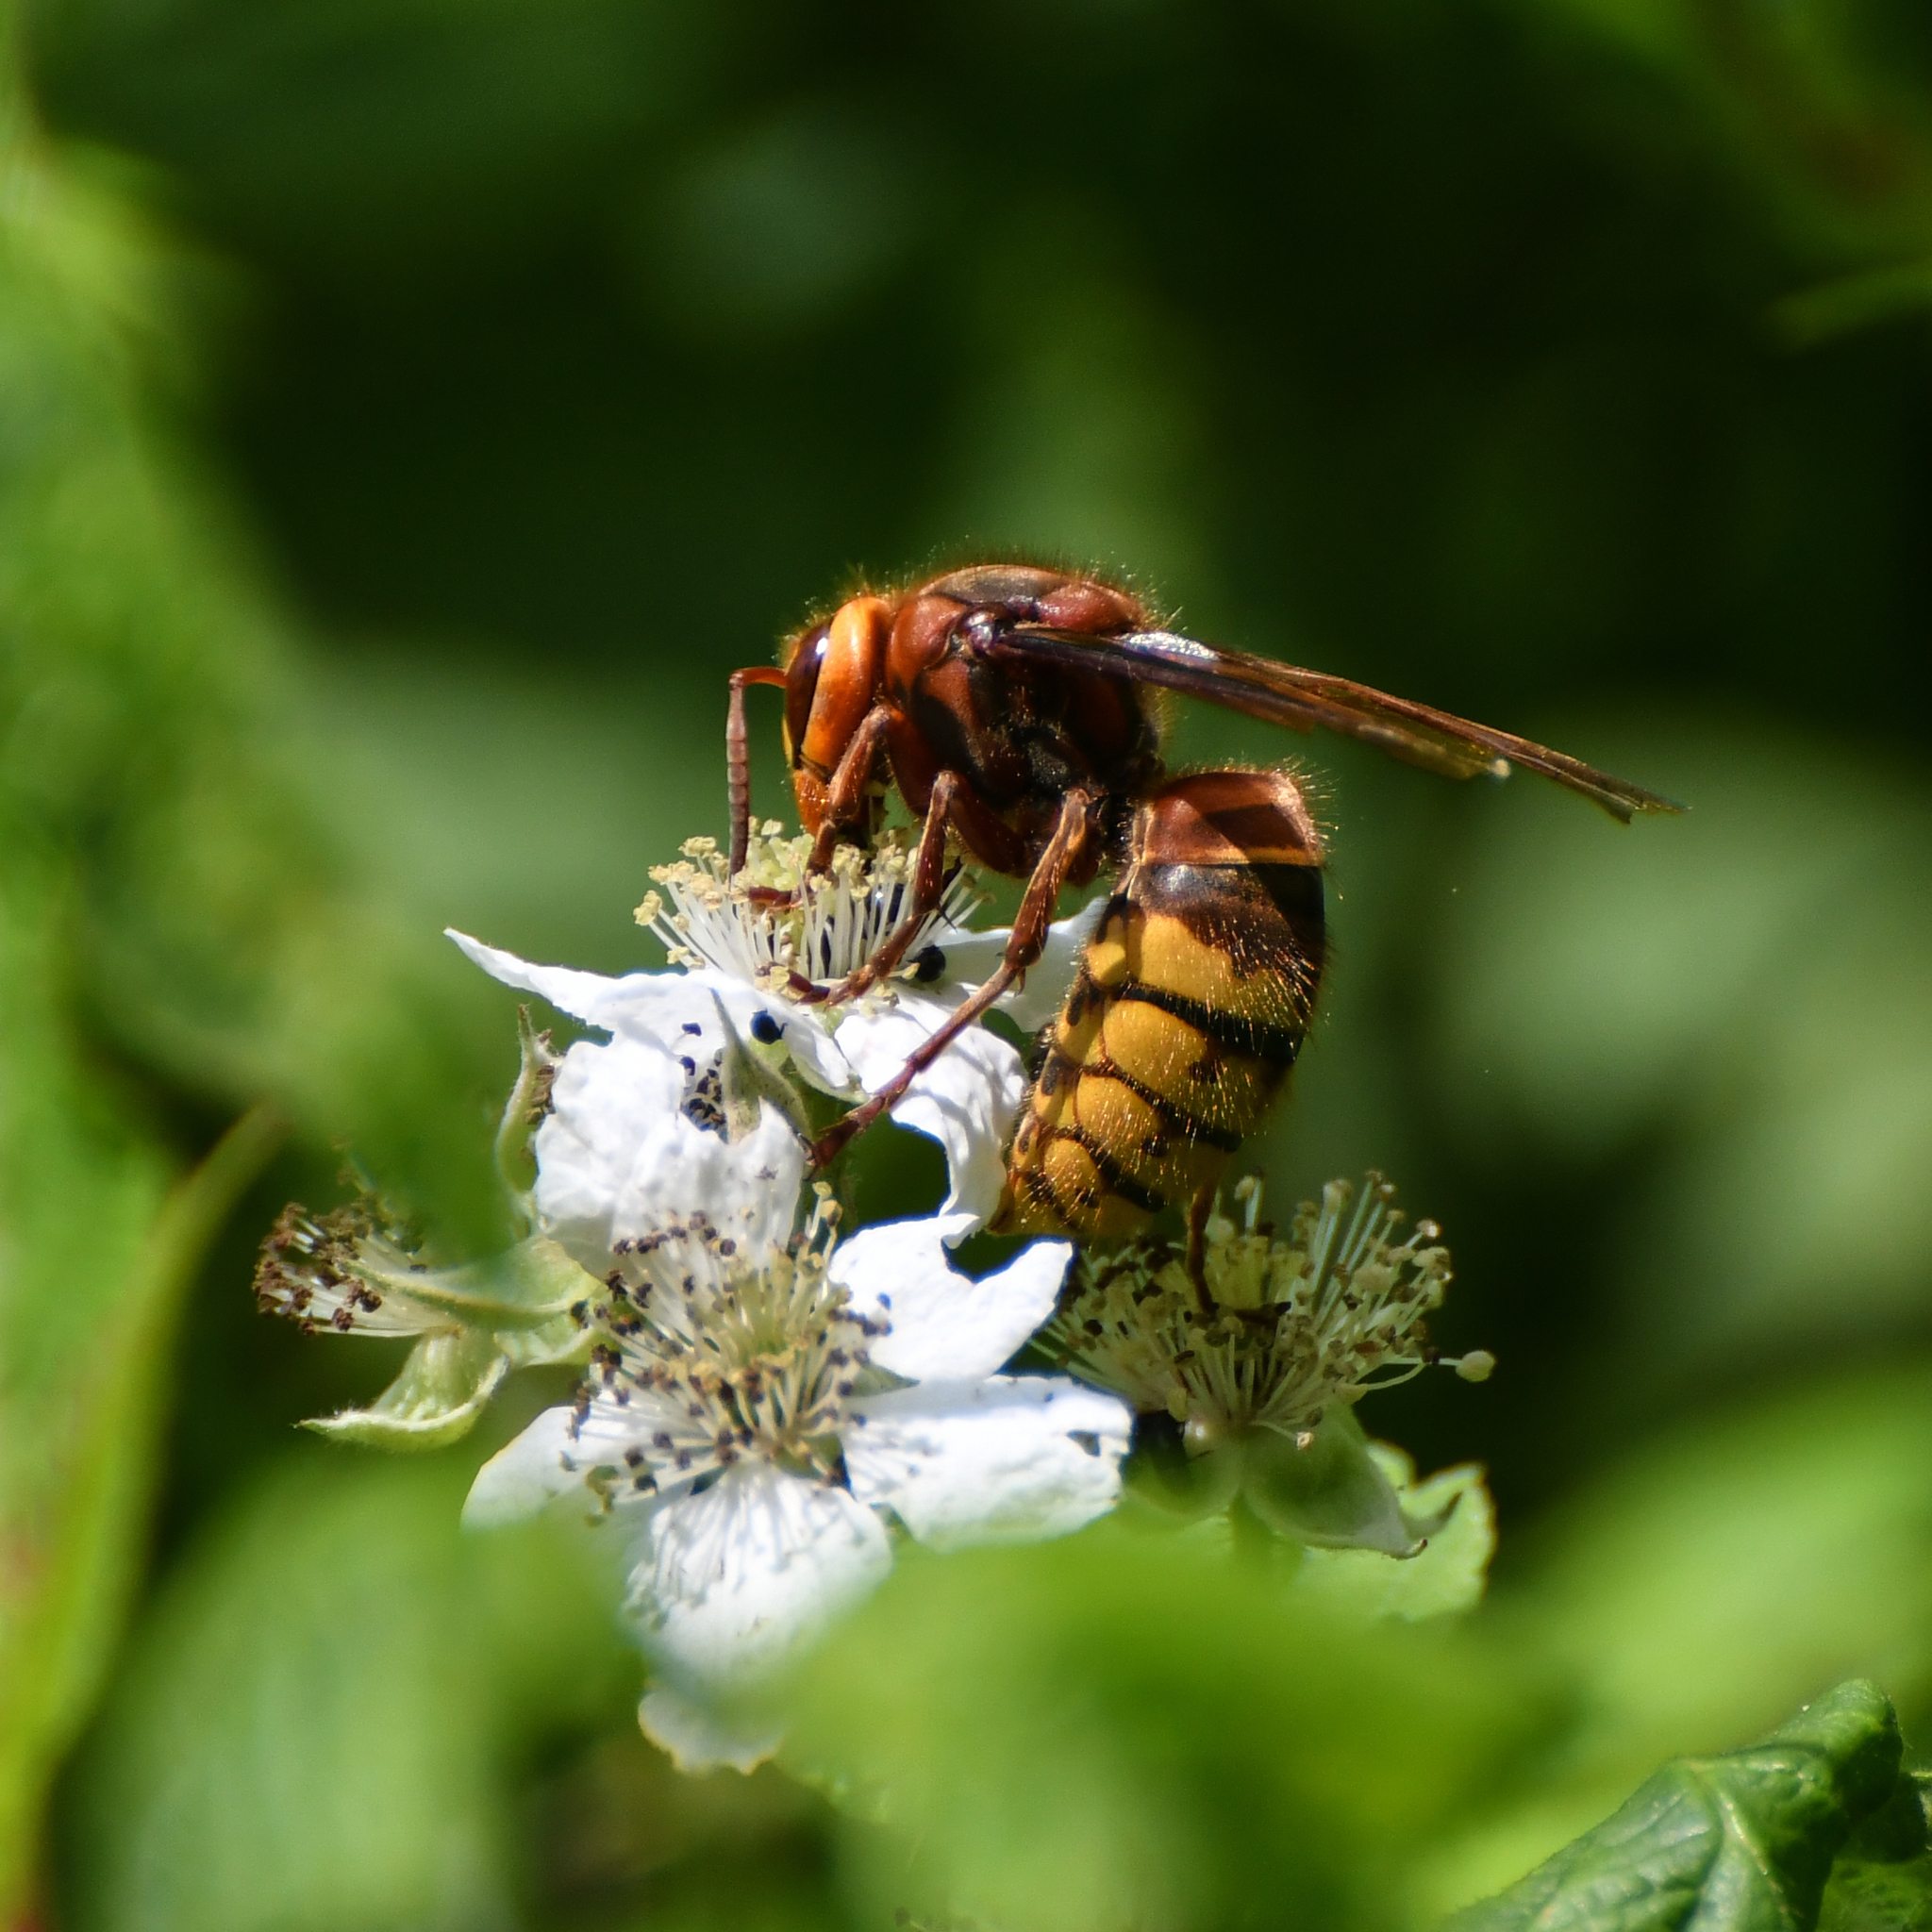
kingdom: Animalia
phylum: Arthropoda
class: Insecta
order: Hymenoptera
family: Vespidae
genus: Vespa
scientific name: Vespa crabro
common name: Hornet
